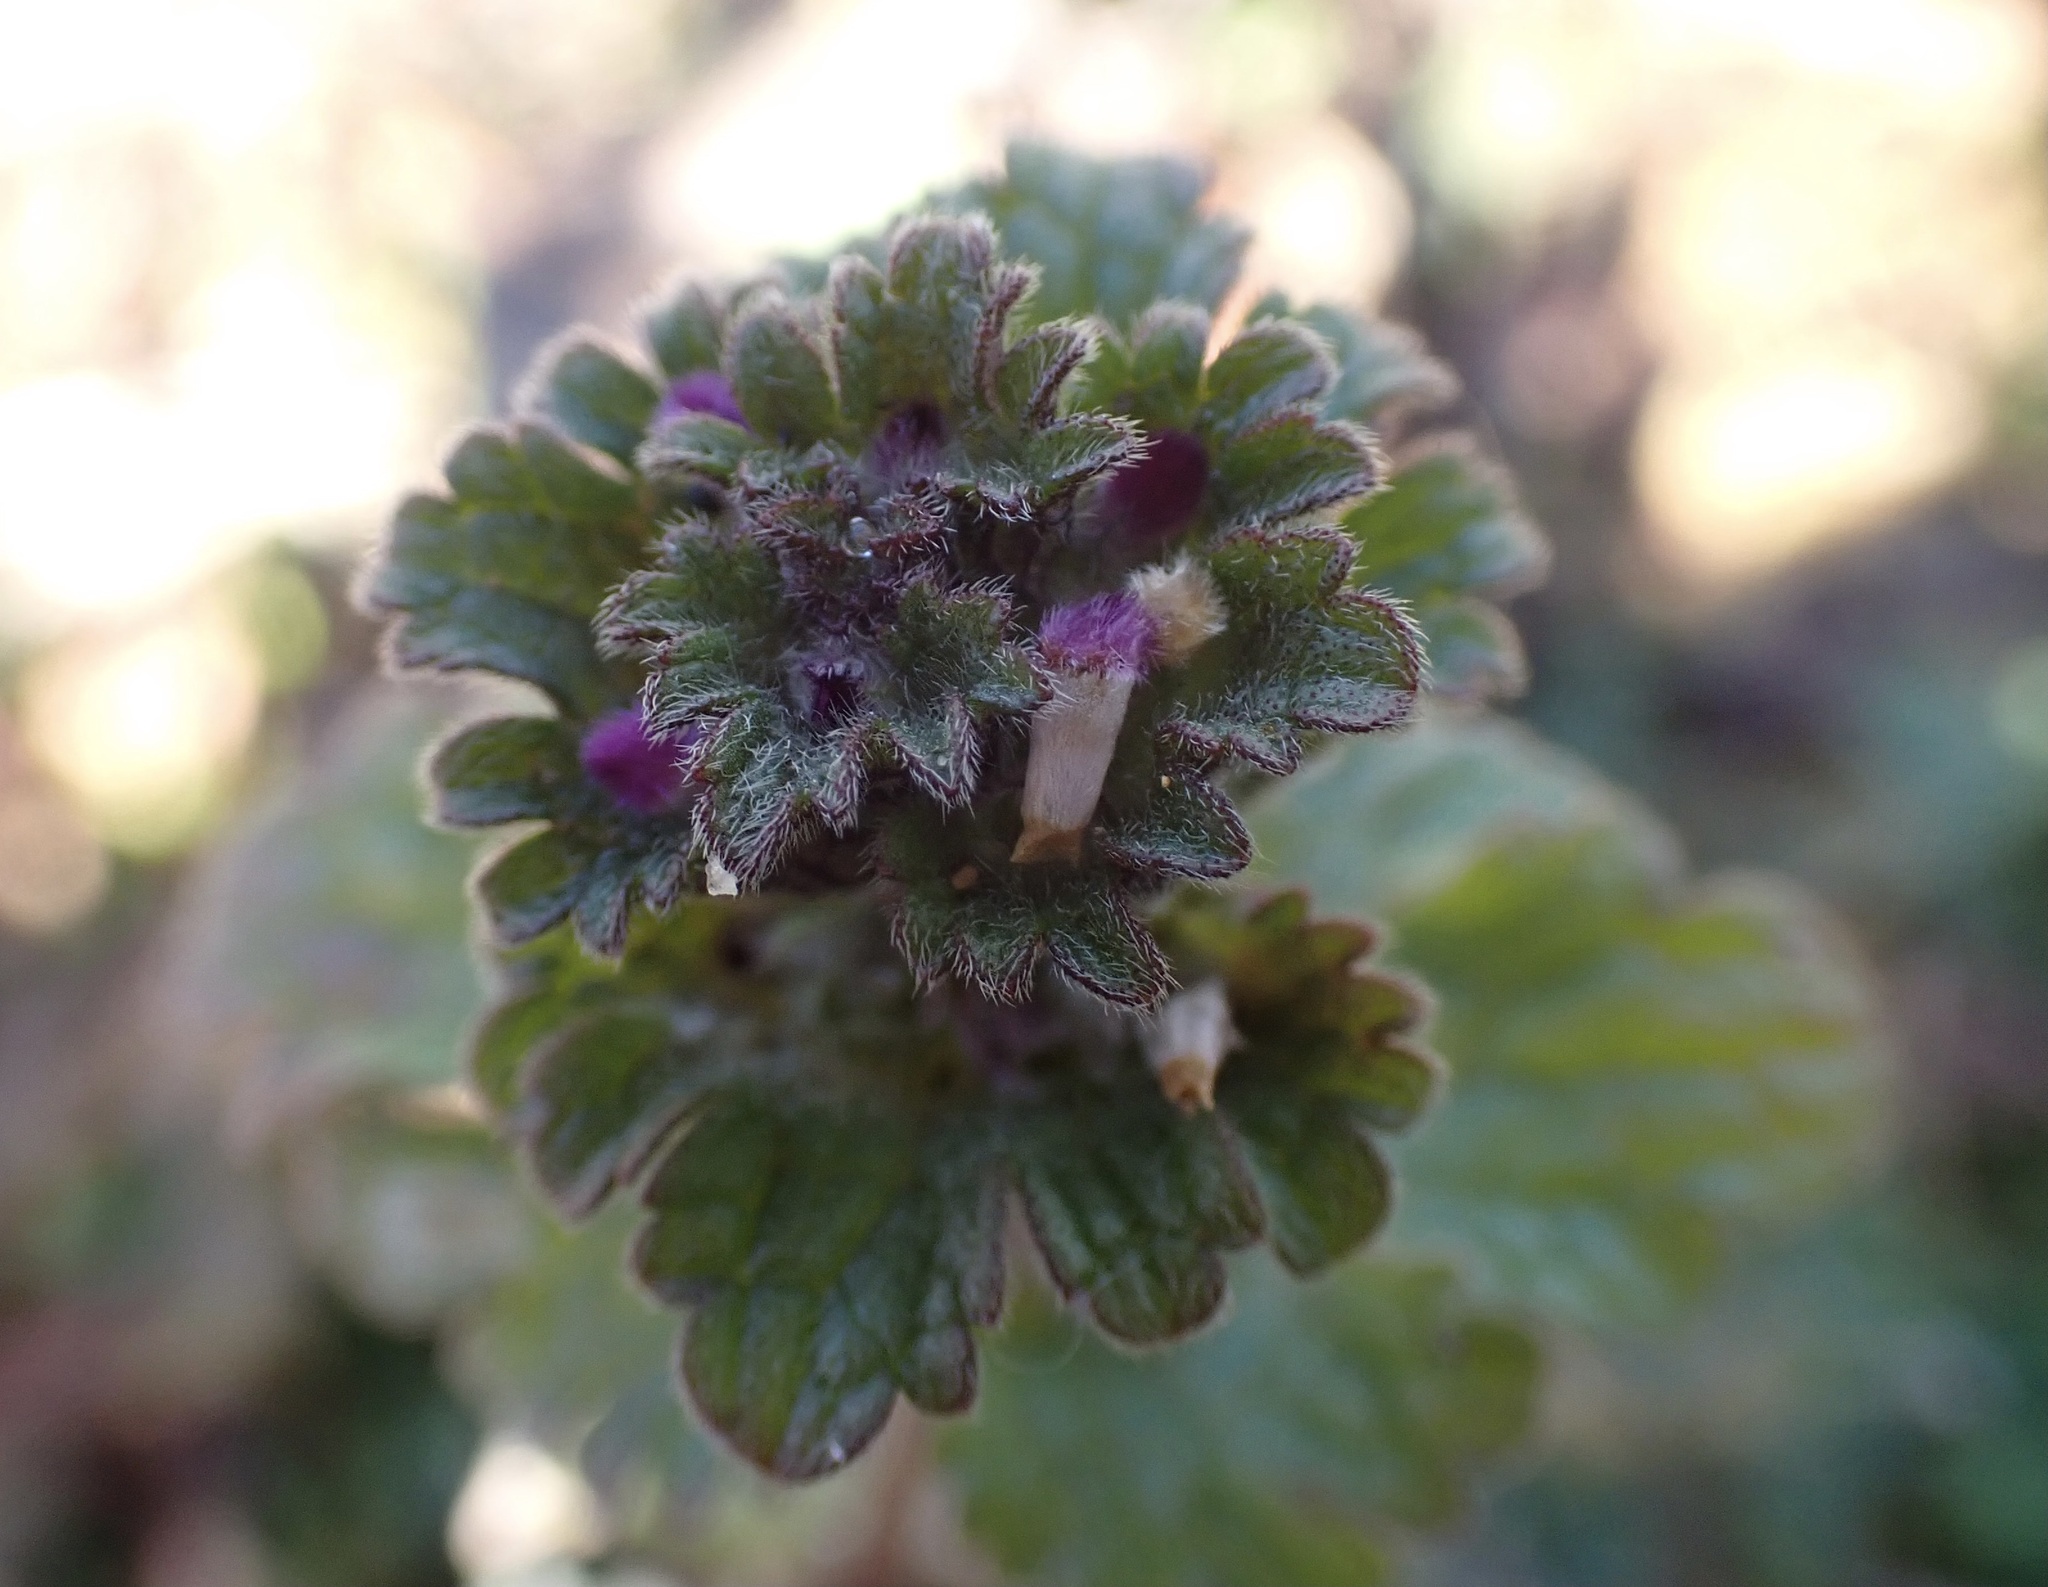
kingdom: Plantae
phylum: Tracheophyta
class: Magnoliopsida
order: Lamiales
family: Lamiaceae
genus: Lamium
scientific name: Lamium amplexicaule
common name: Henbit dead-nettle
